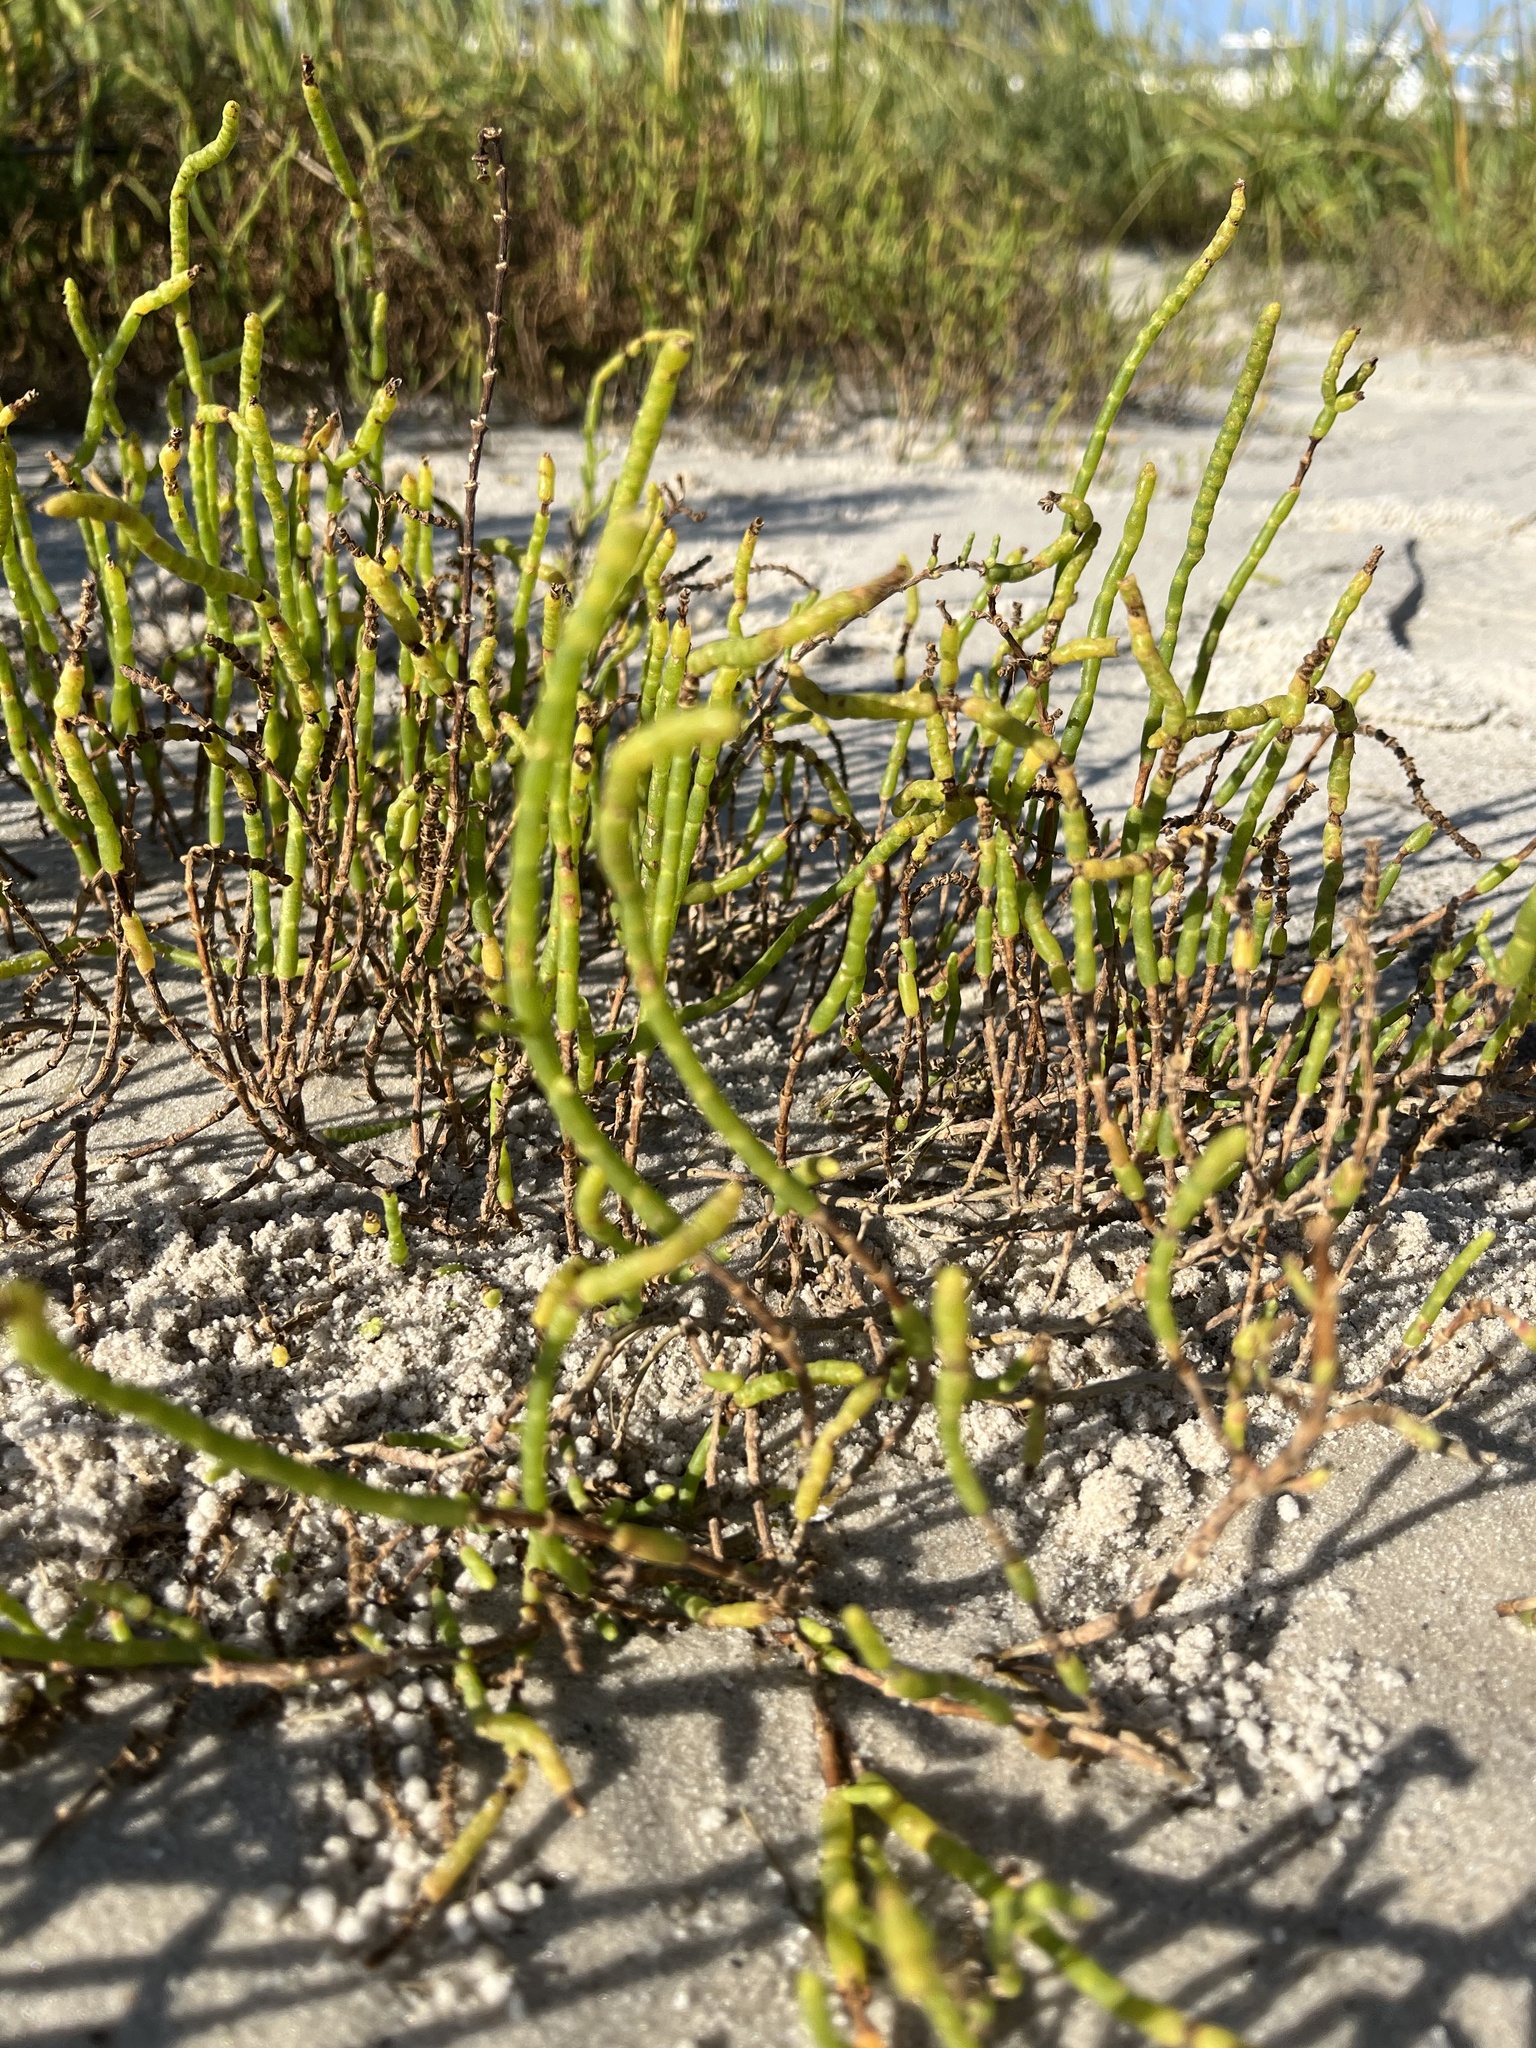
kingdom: Plantae
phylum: Tracheophyta
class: Magnoliopsida
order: Caryophyllales
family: Amaranthaceae
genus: Salicornia
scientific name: Salicornia ambigua
